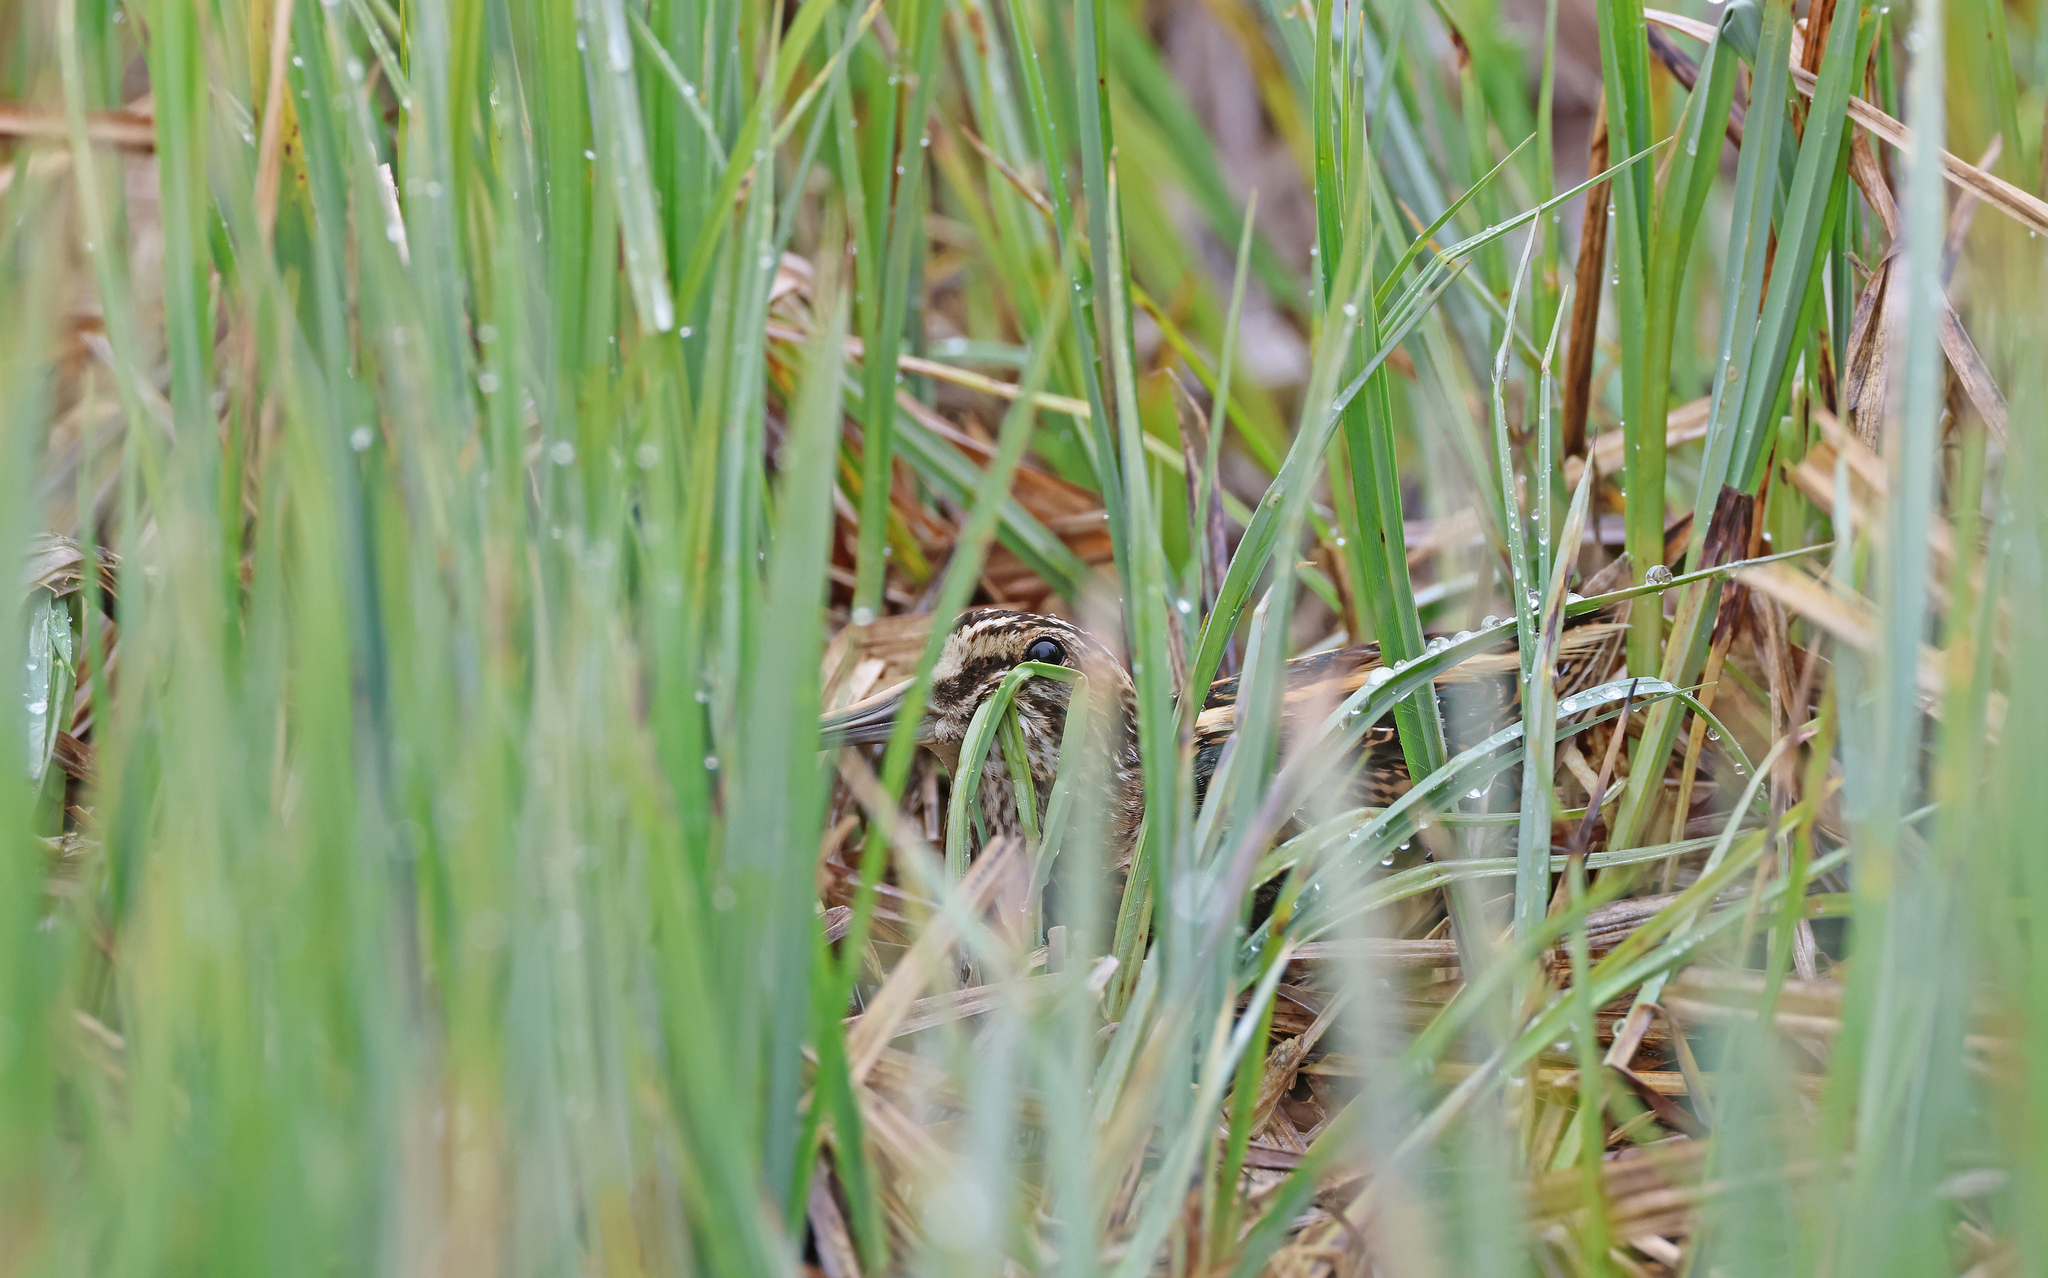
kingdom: Animalia
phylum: Chordata
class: Aves
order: Charadriiformes
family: Scolopacidae
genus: Lymnocryptes
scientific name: Lymnocryptes minimus
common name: Jack snipe
